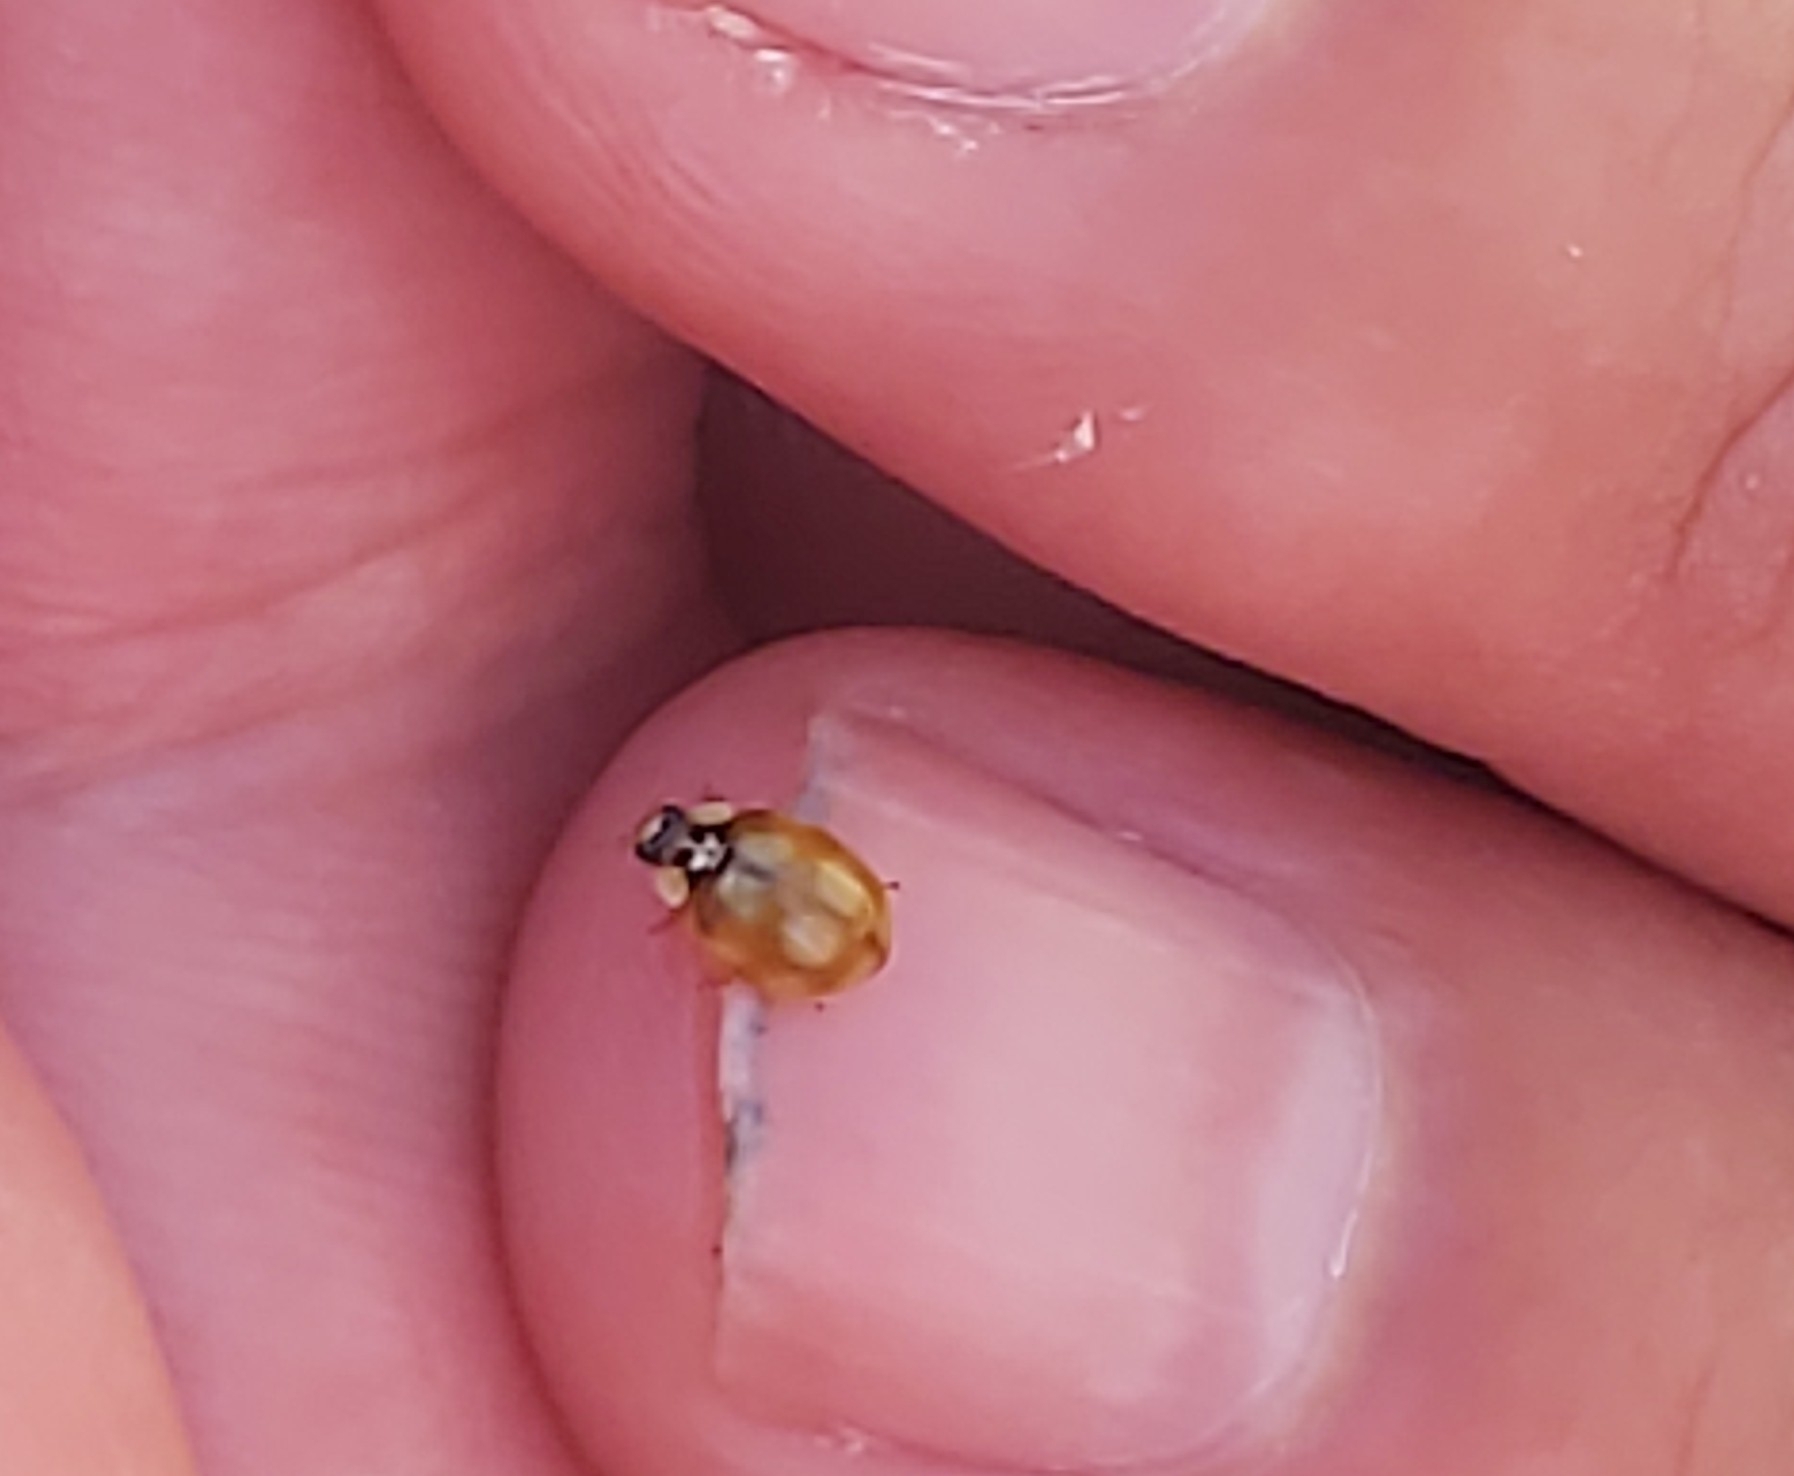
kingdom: Animalia
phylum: Arthropoda
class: Insecta
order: Coleoptera
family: Coccinellidae
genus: Adalia
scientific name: Adalia decempunctata
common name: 10-spot ladybird
